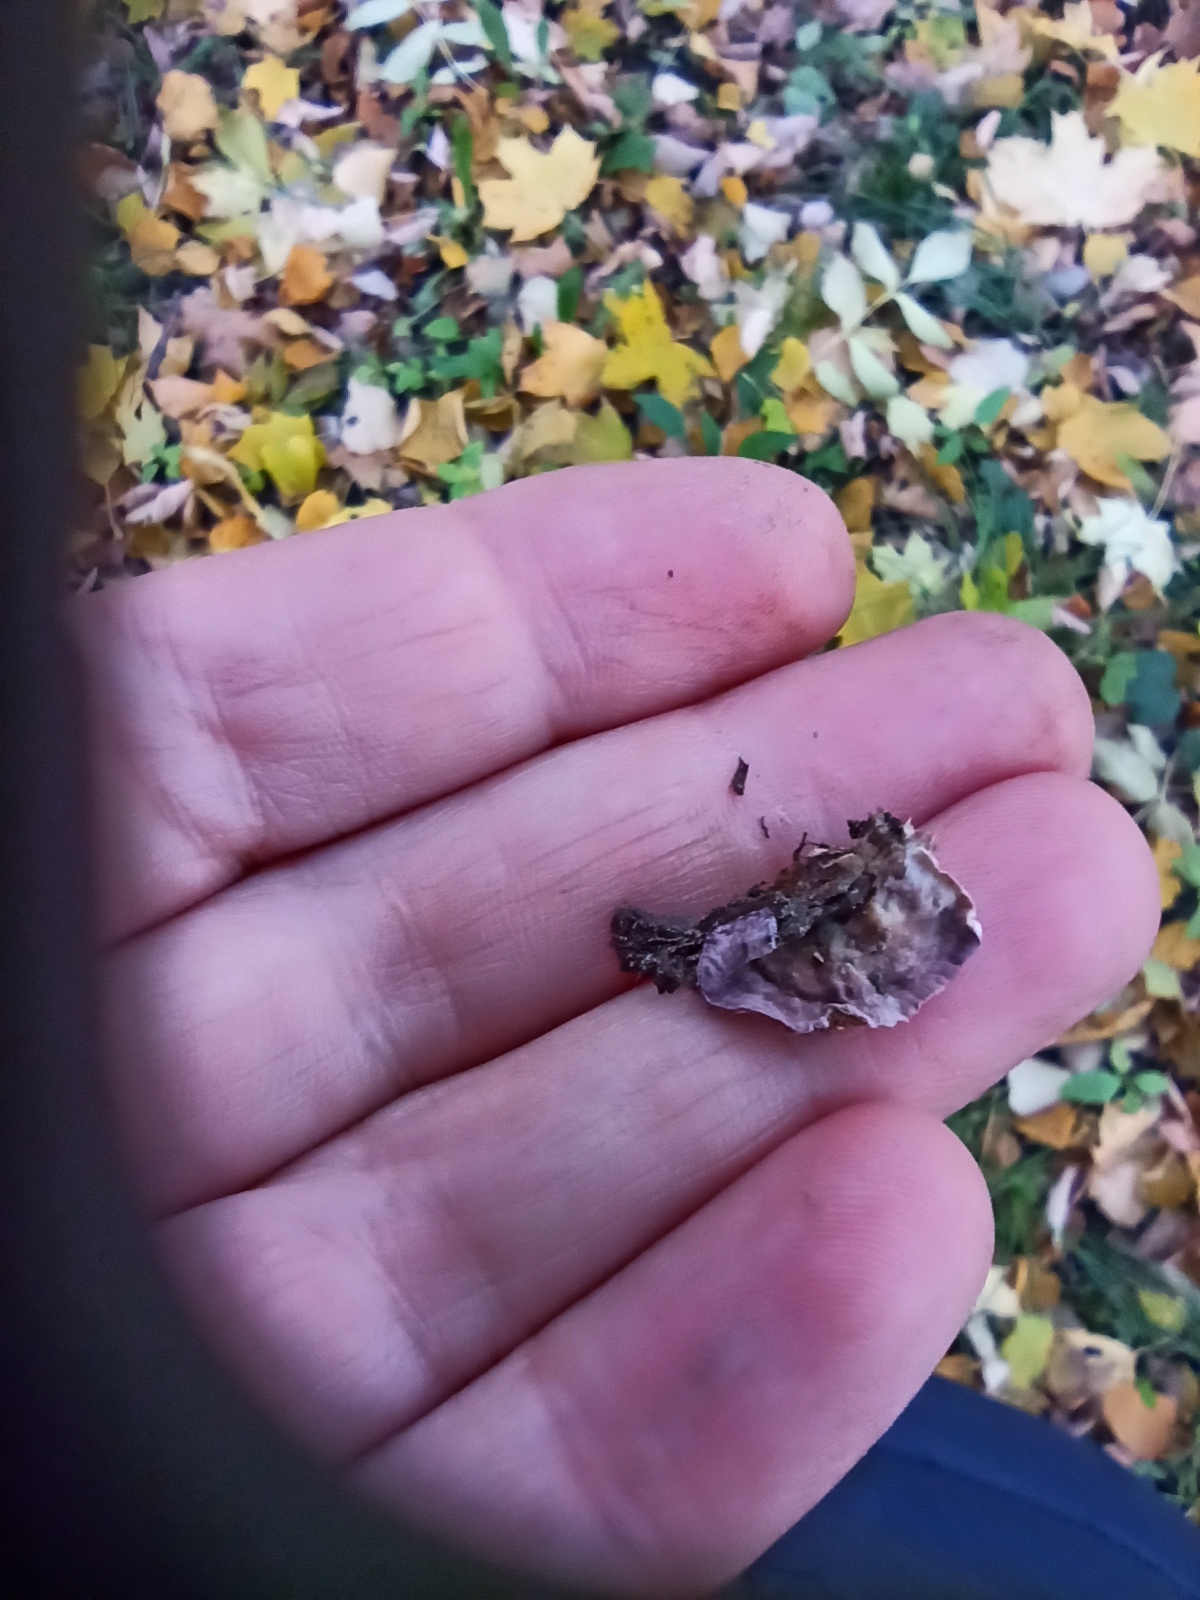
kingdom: Fungi
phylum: Basidiomycota
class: Agaricomycetes
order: Agaricales
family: Cyphellaceae
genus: Chondrostereum
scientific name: Chondrostereum purpureum
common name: Silver leaf disease
